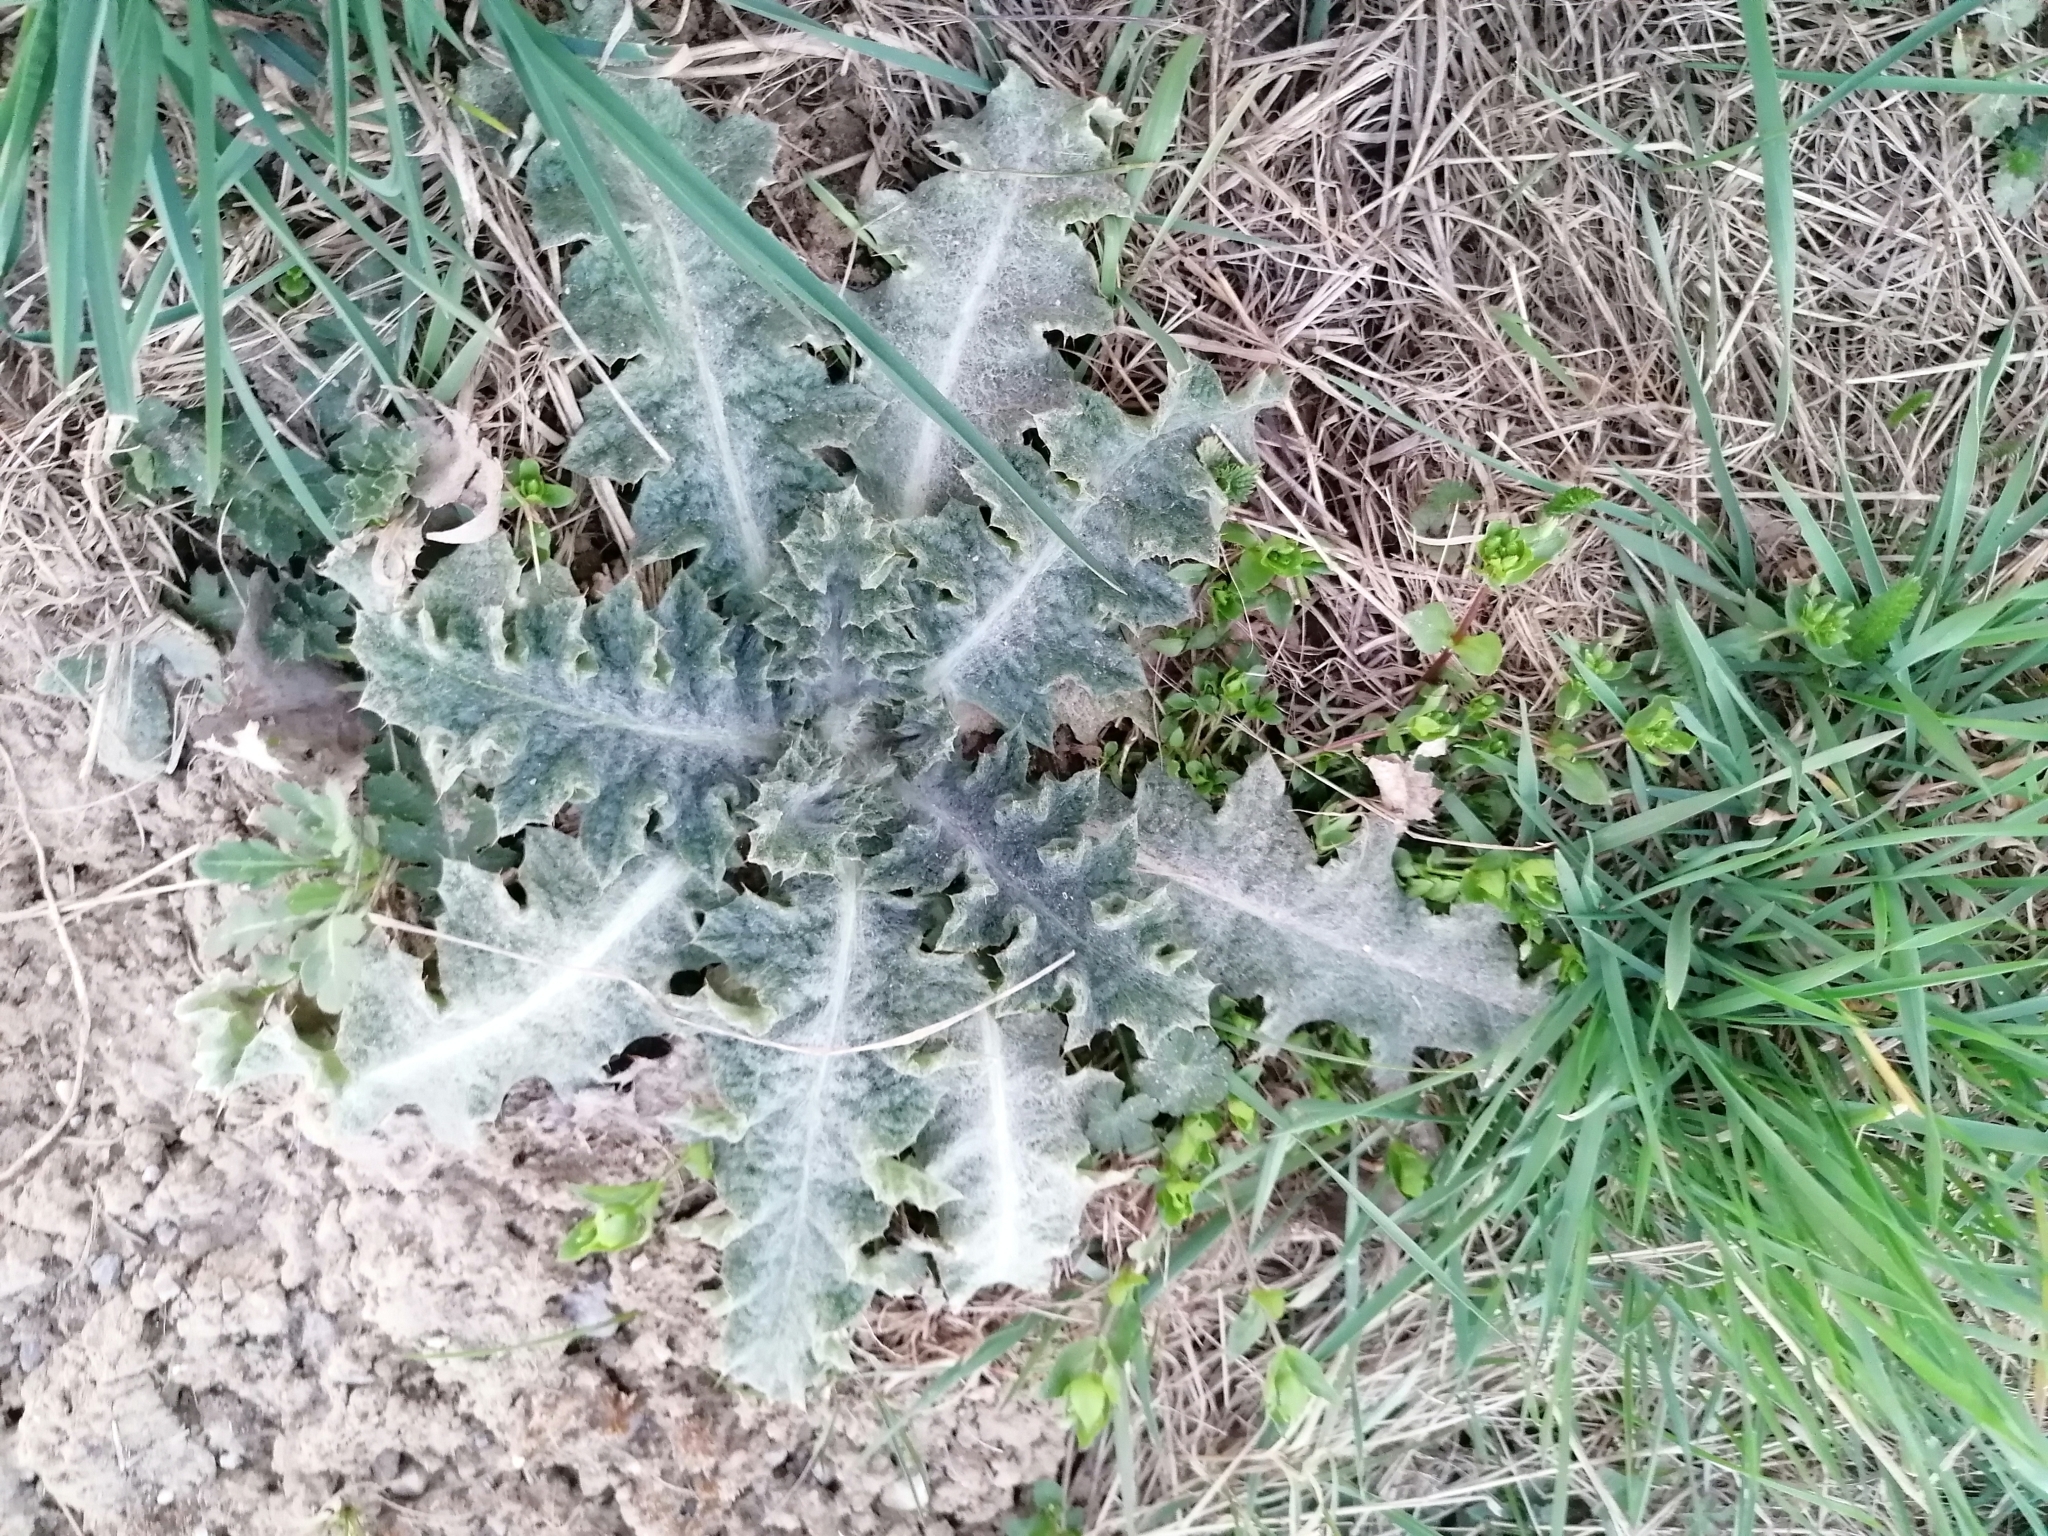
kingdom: Plantae
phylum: Tracheophyta
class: Magnoliopsida
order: Asterales
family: Asteraceae
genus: Onopordum
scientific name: Onopordum acanthium
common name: Scotch thistle
